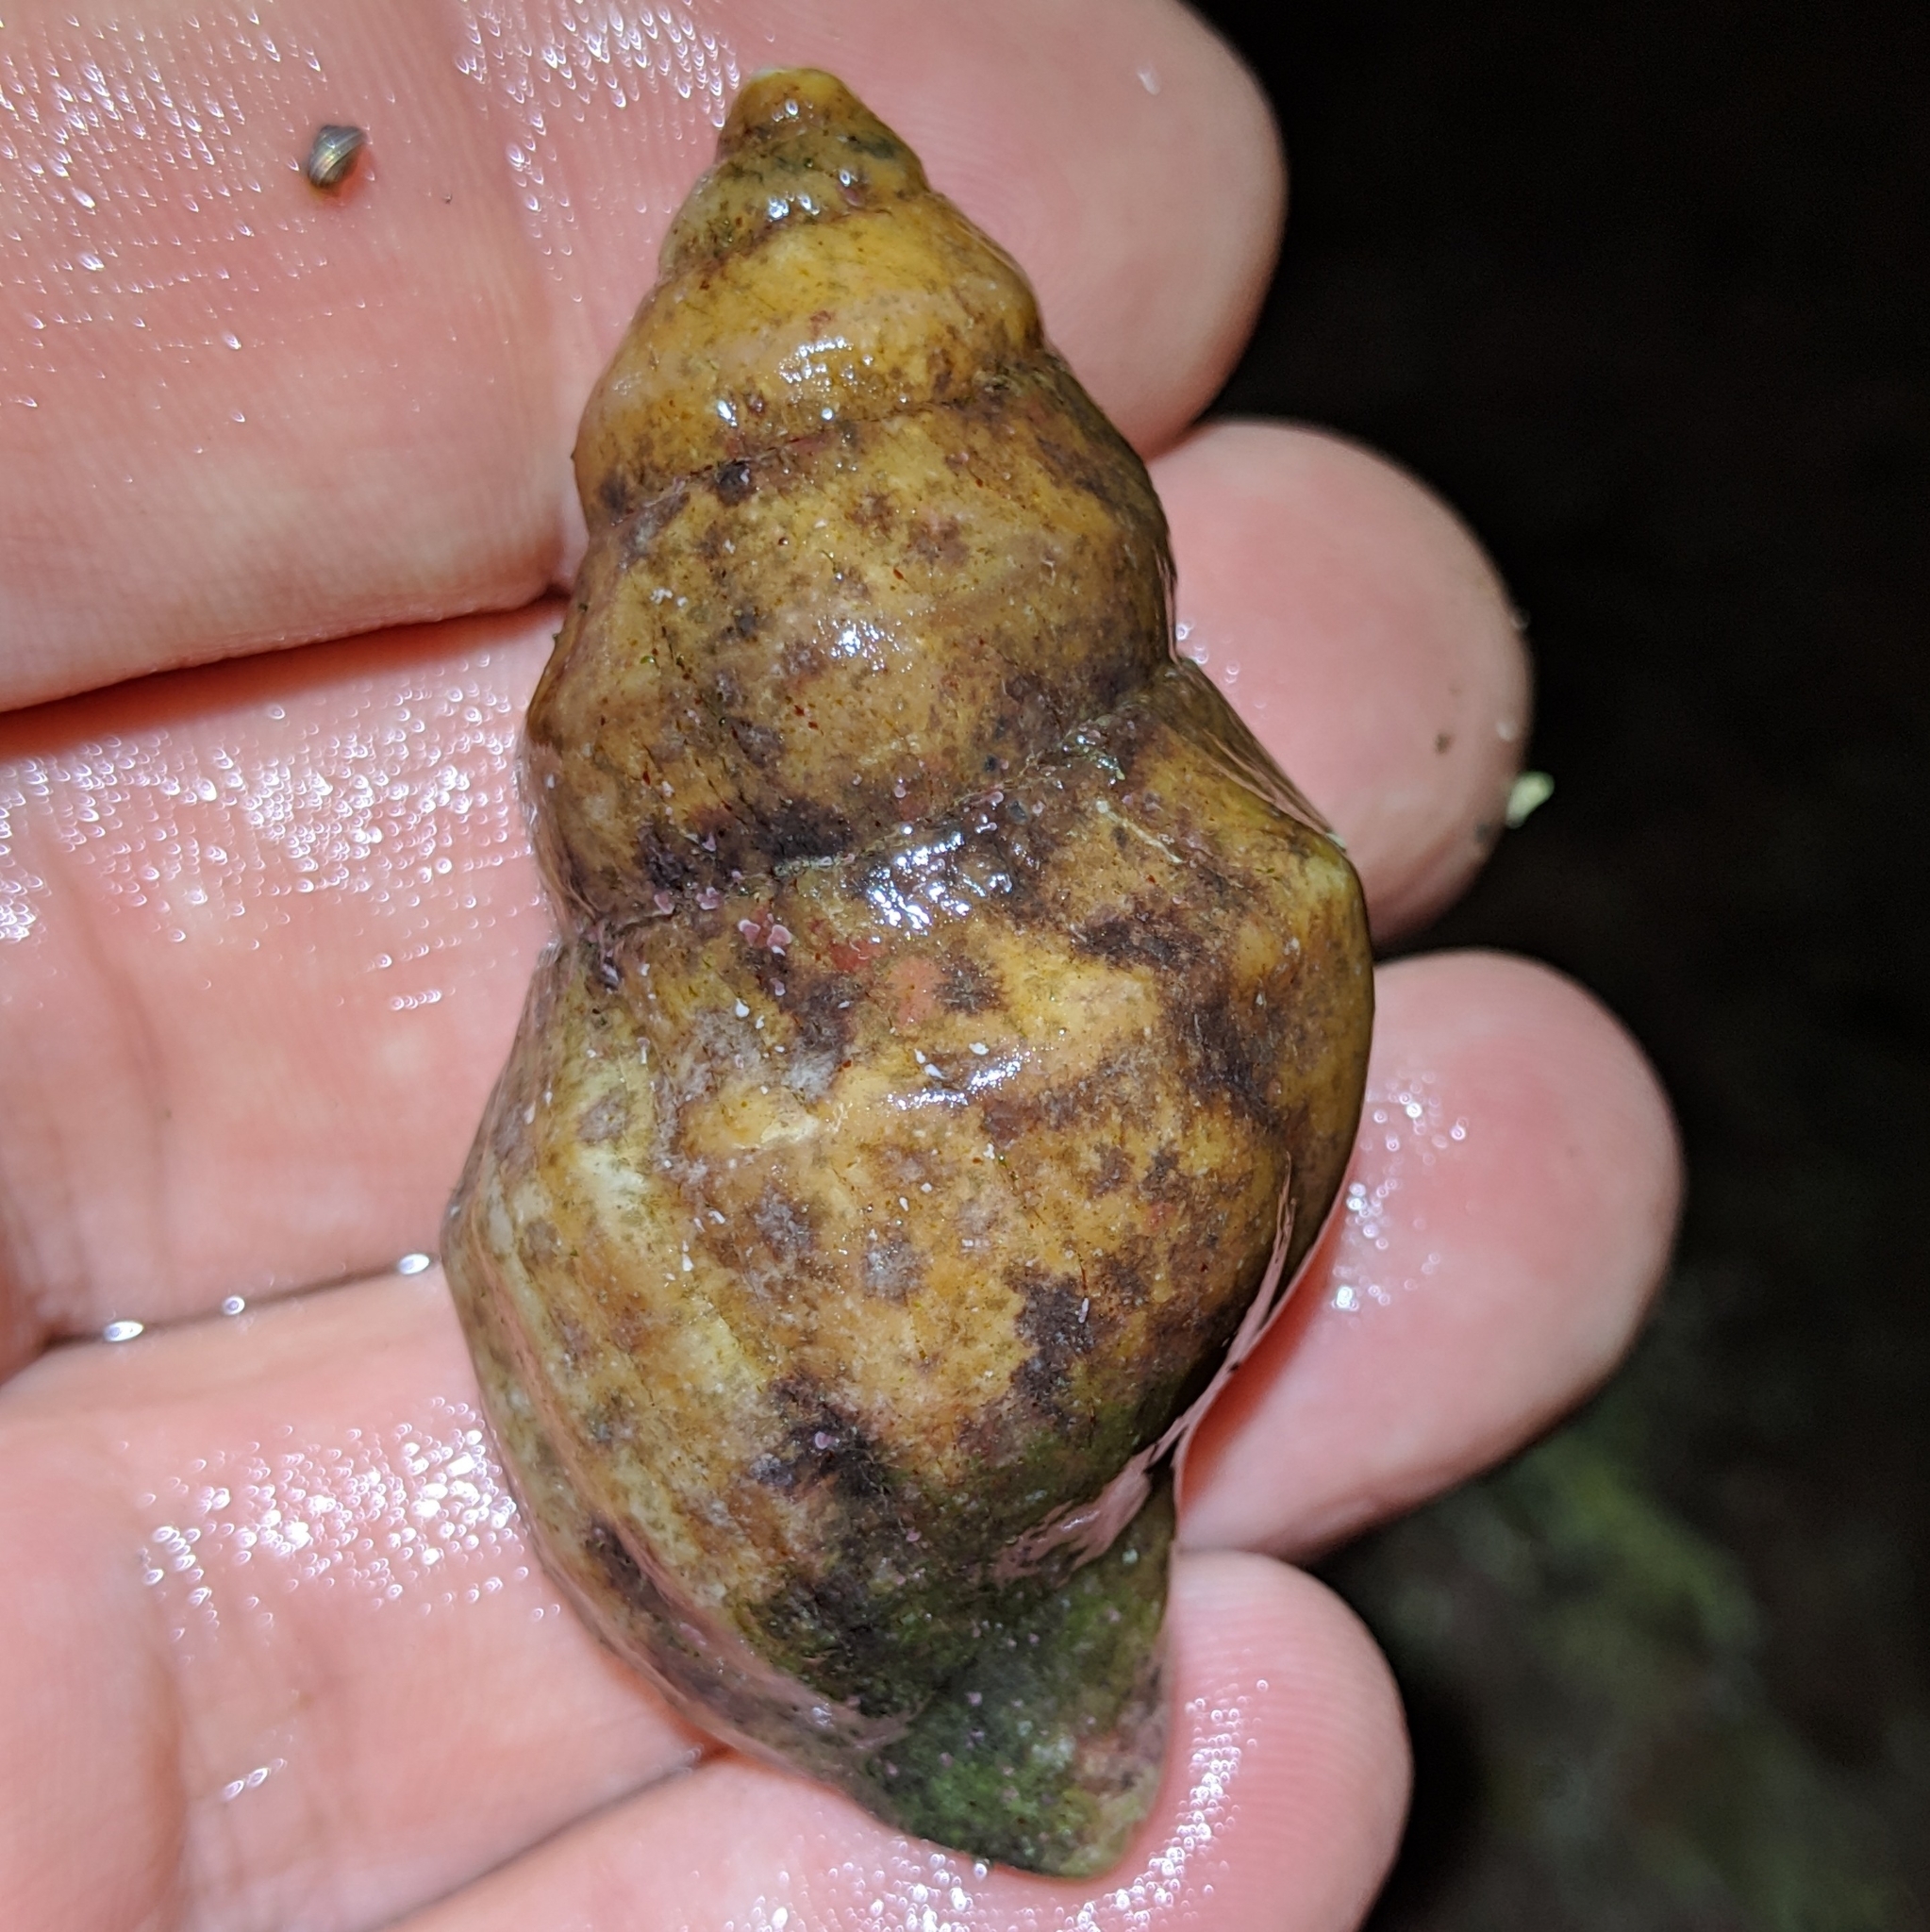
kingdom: Animalia
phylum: Mollusca
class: Gastropoda
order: Neogastropoda
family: Muricidae
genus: Nucella
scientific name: Nucella lamellosa
